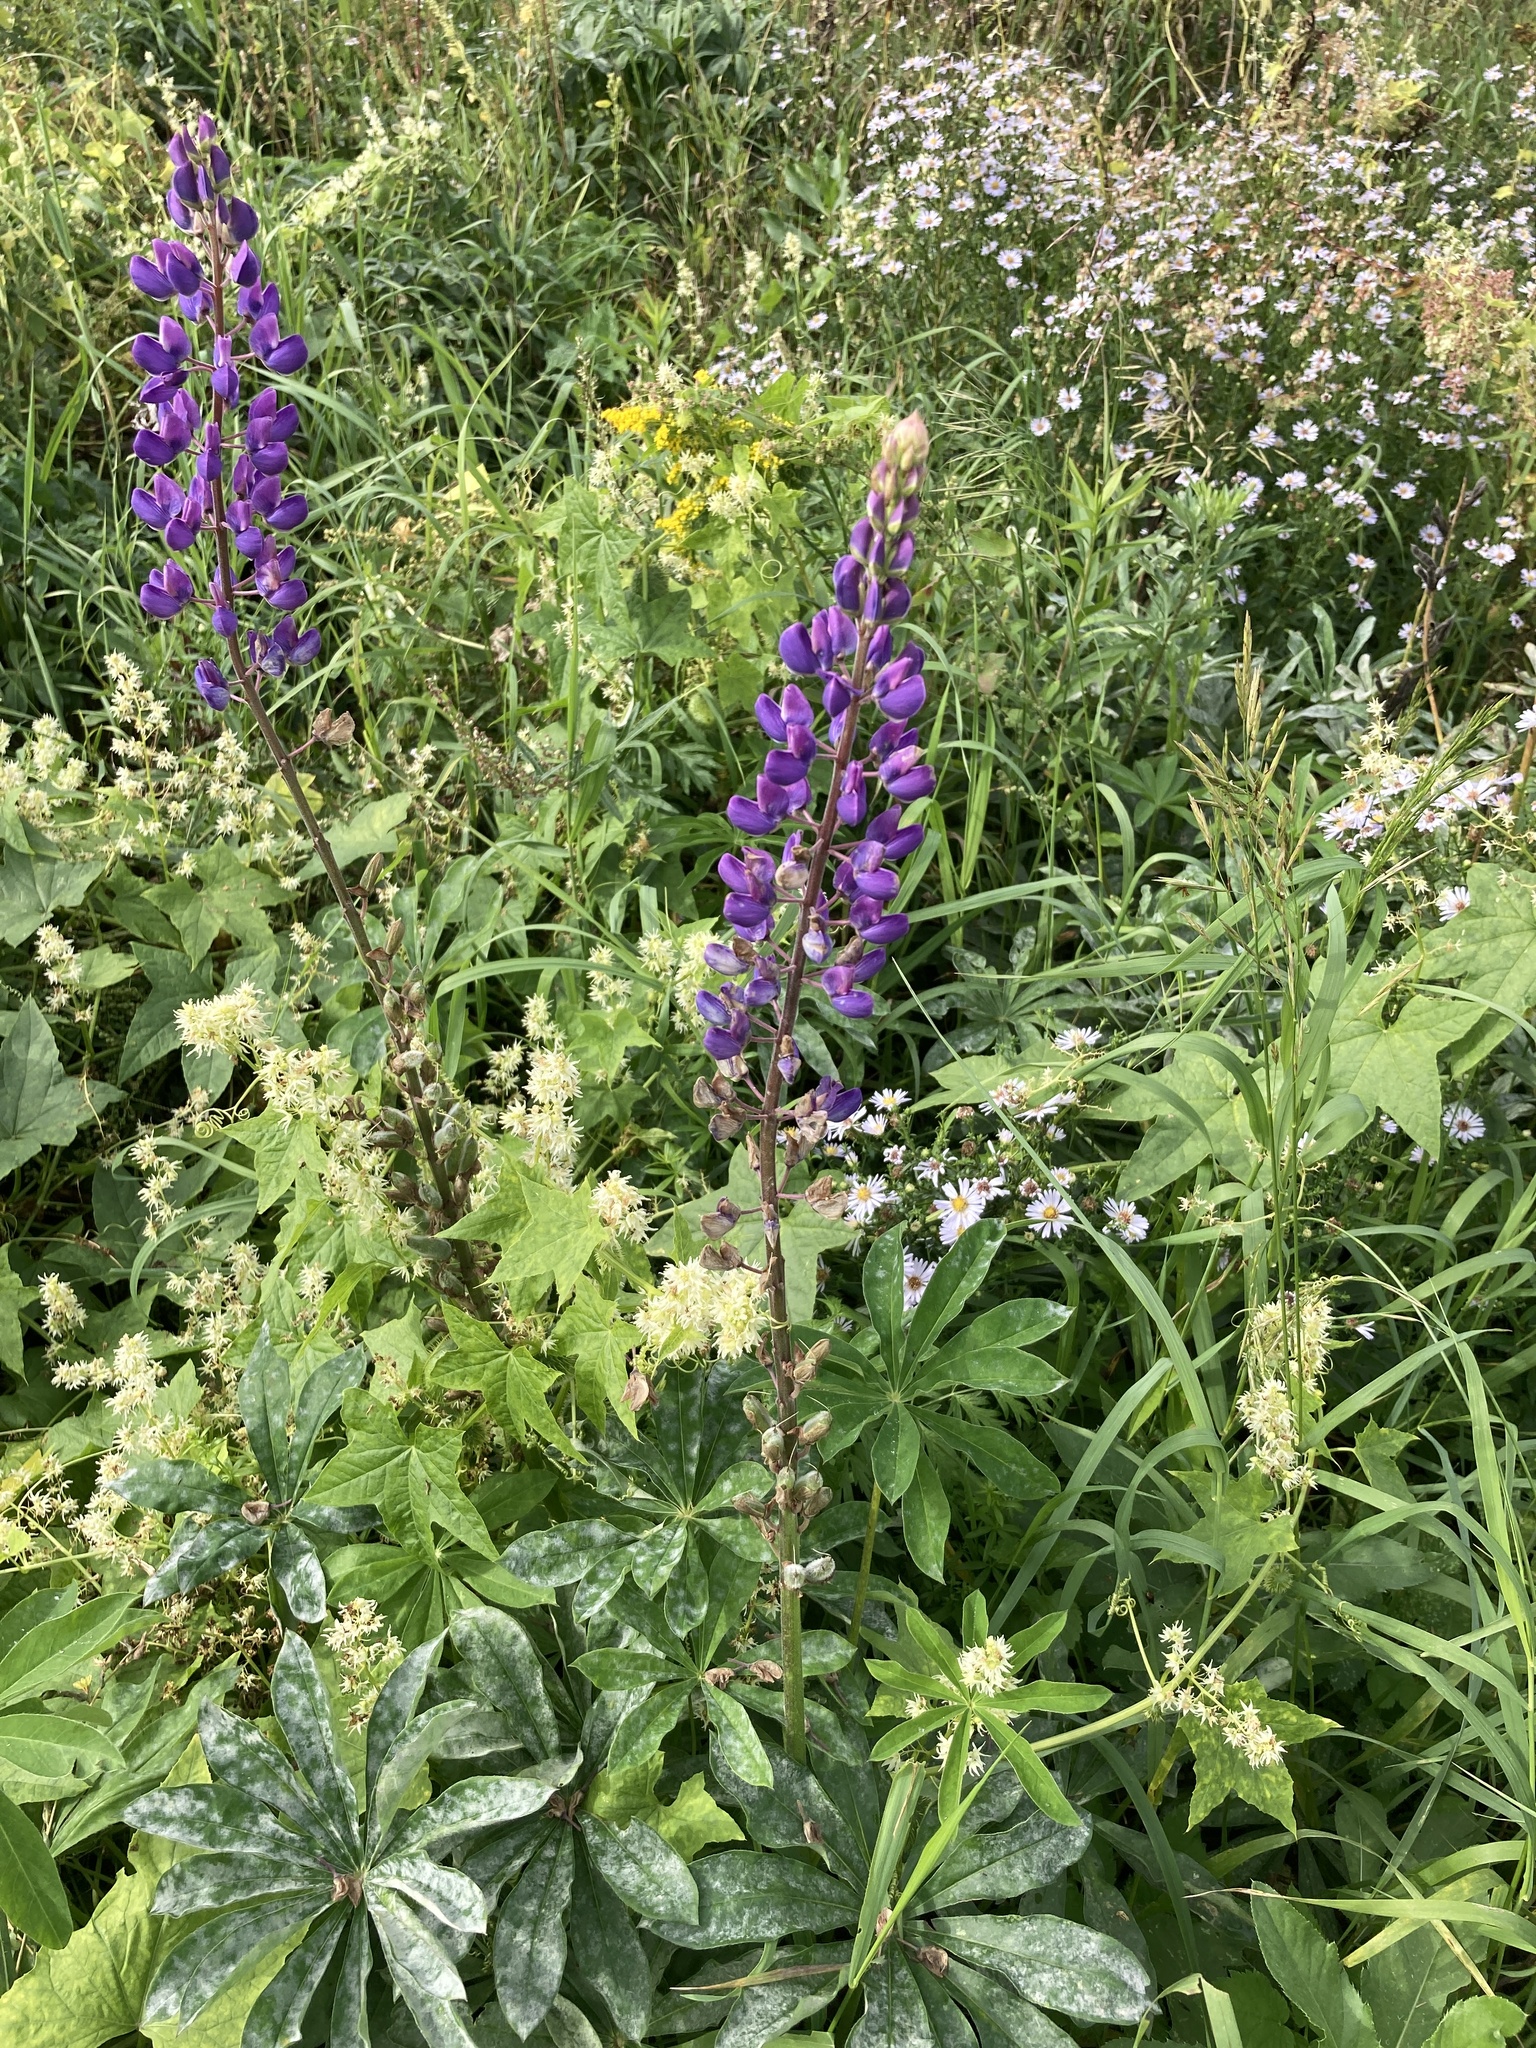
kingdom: Plantae
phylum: Tracheophyta
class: Magnoliopsida
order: Fabales
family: Fabaceae
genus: Lupinus
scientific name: Lupinus polyphyllus
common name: Garden lupin
